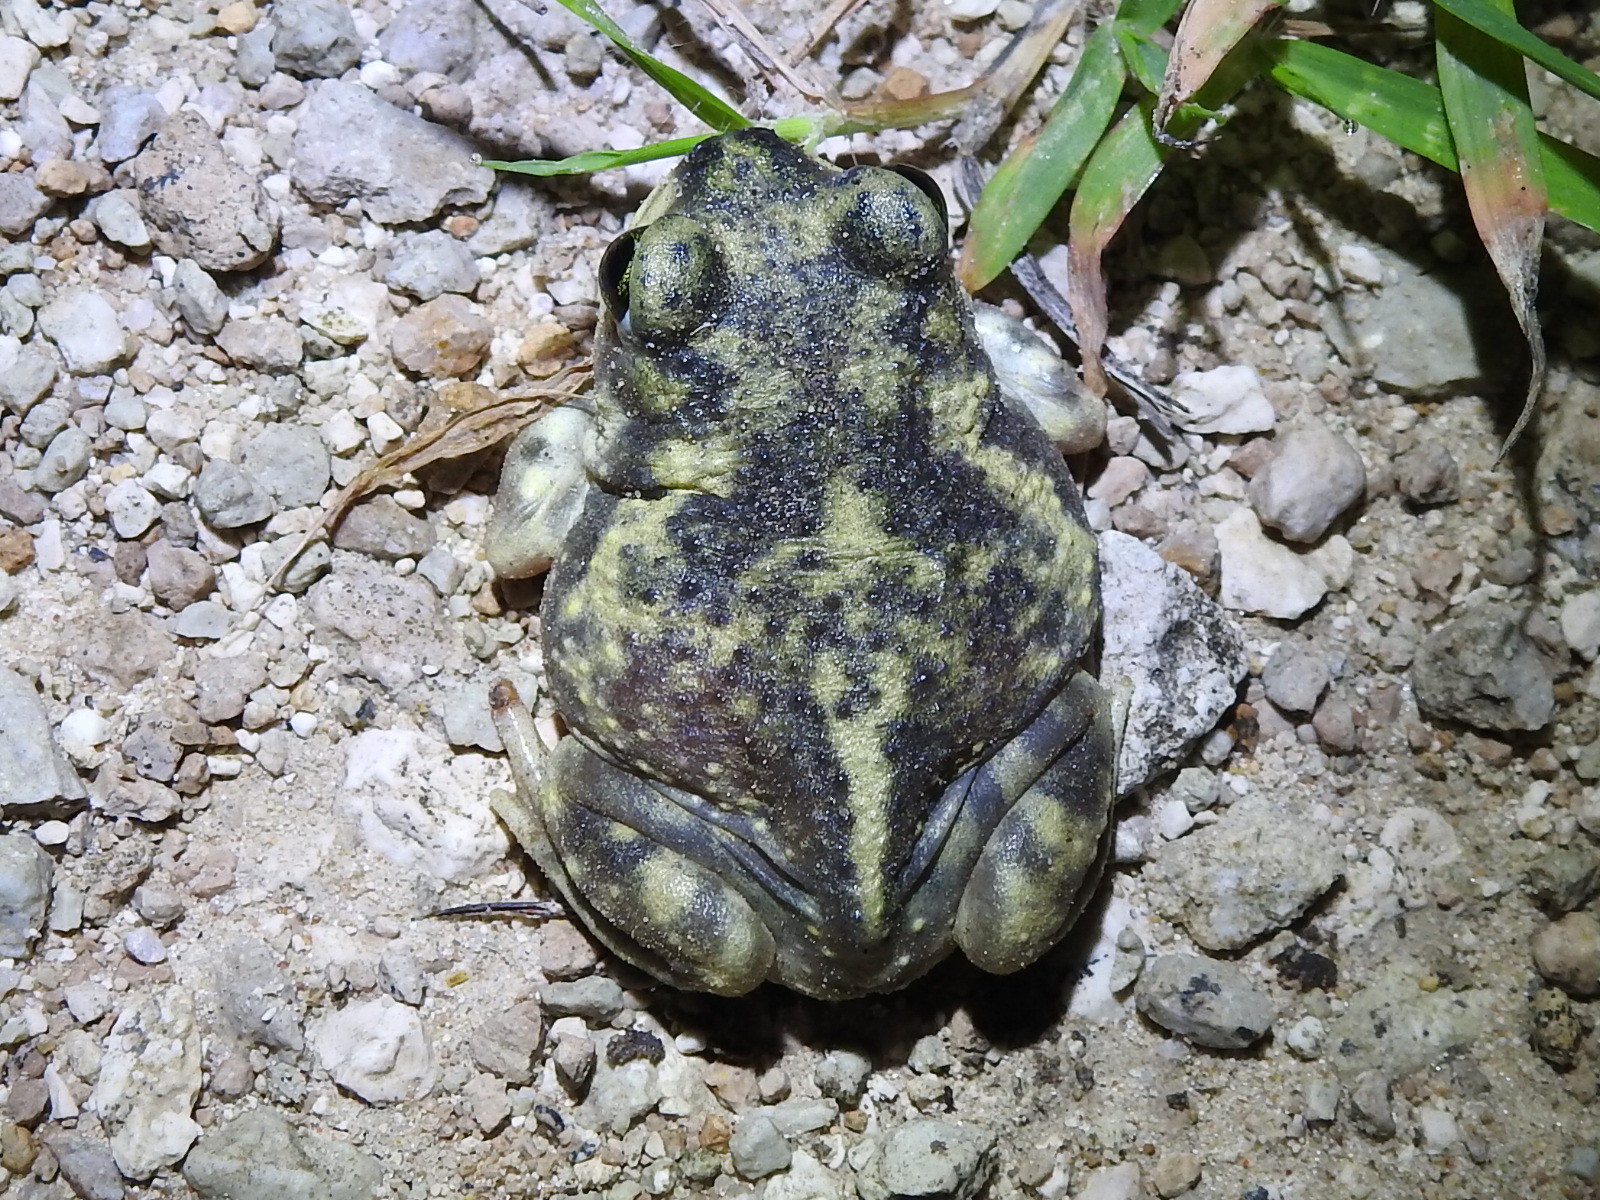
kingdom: Animalia
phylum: Chordata
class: Amphibia
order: Anura
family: Scaphiopodidae
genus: Scaphiopus
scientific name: Scaphiopus couchii
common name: Couch's spadefoot toad
